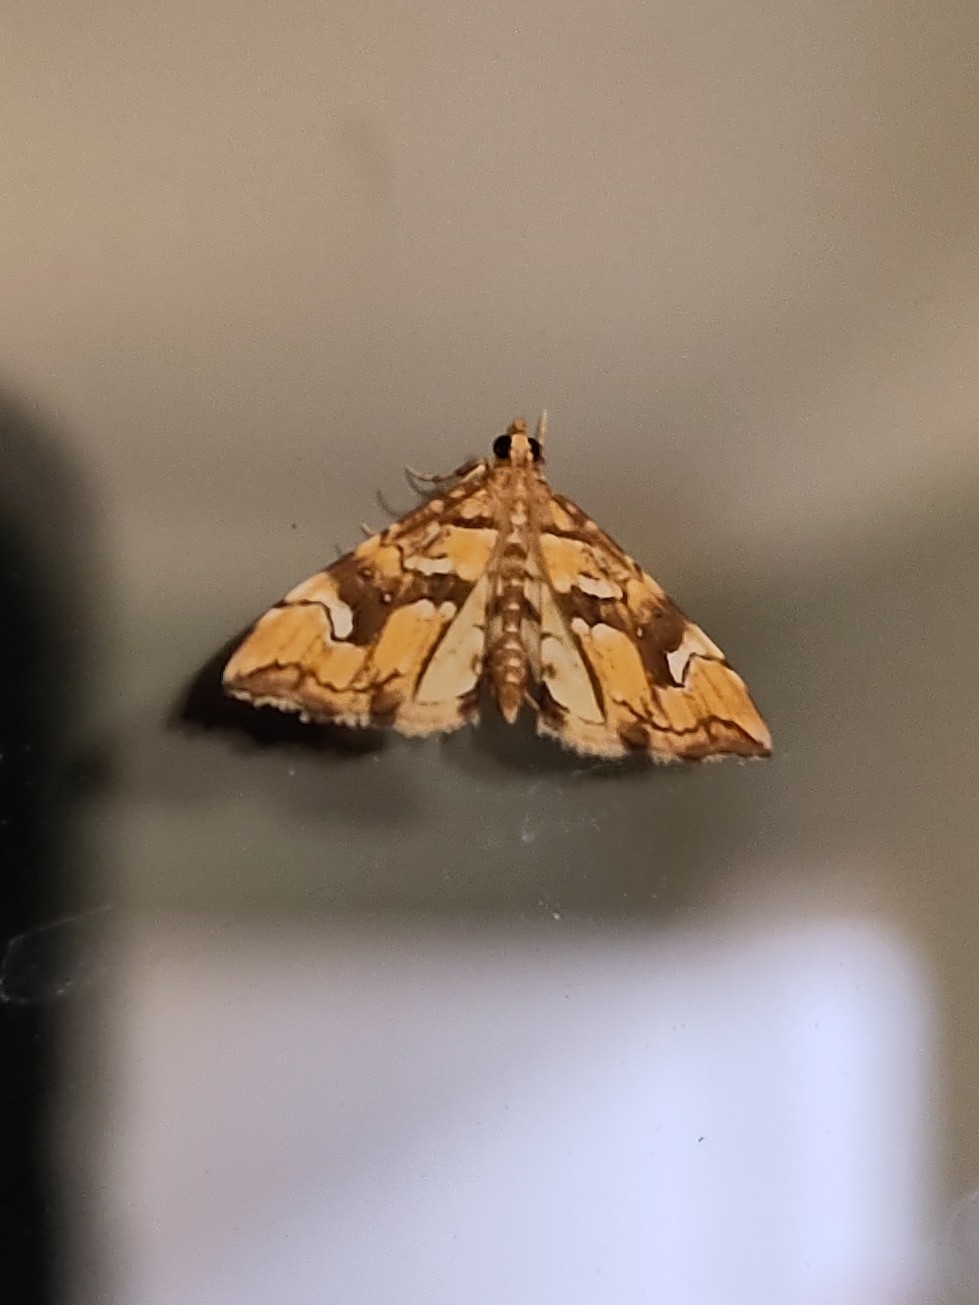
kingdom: Animalia
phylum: Arthropoda
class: Insecta
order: Lepidoptera
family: Pyralidae
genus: Musotima
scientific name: Musotima nitidalis
